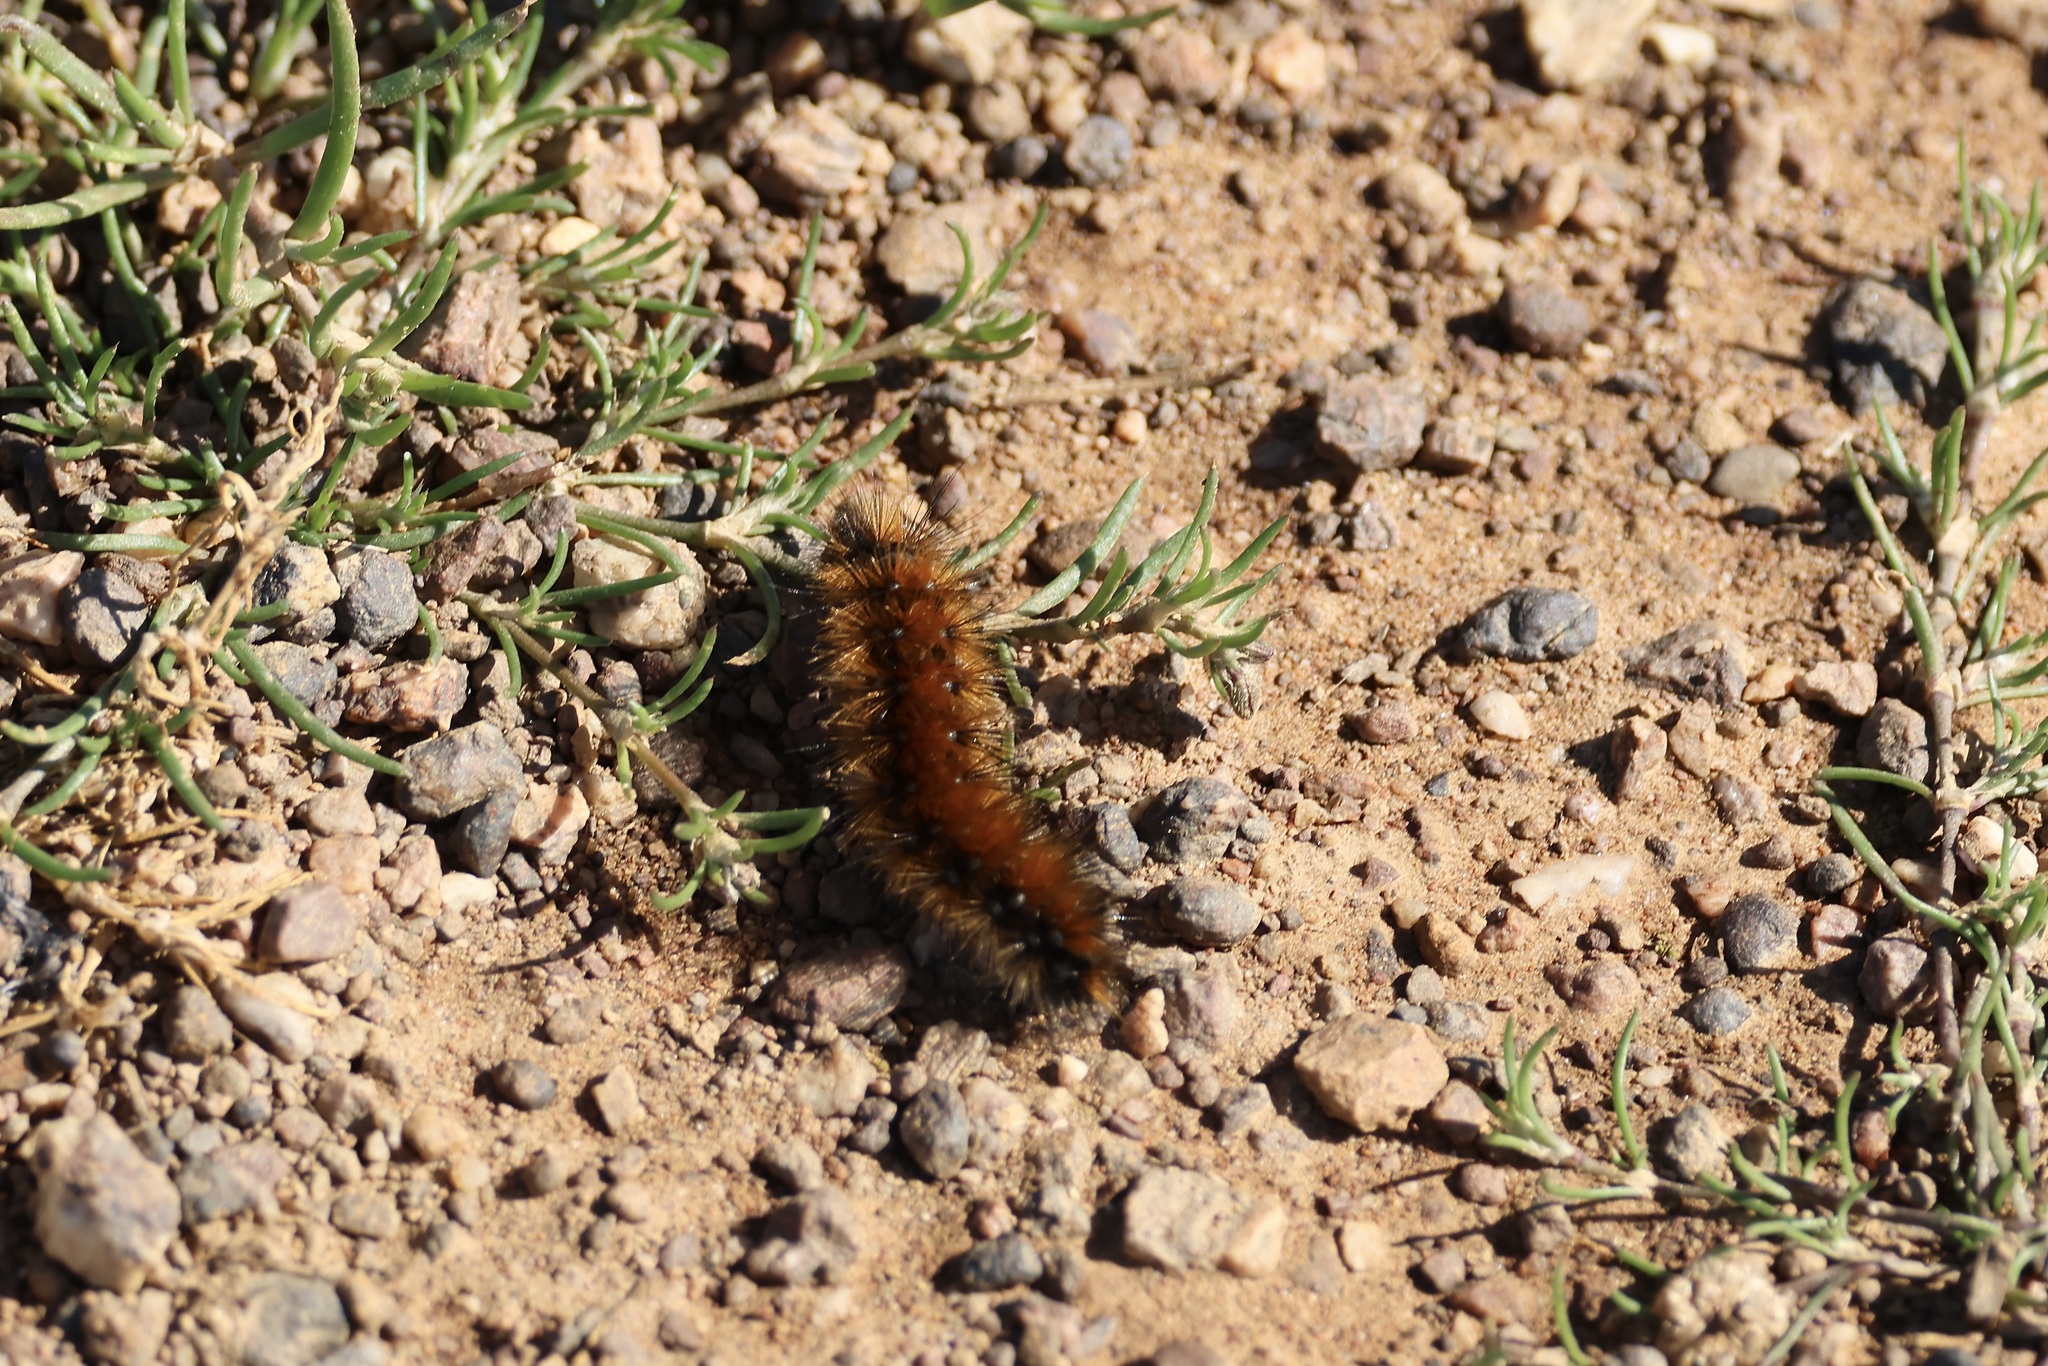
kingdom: Animalia
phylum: Arthropoda
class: Insecta
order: Lepidoptera
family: Erebidae
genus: Ocnogyna
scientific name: Ocnogyna boeticum
